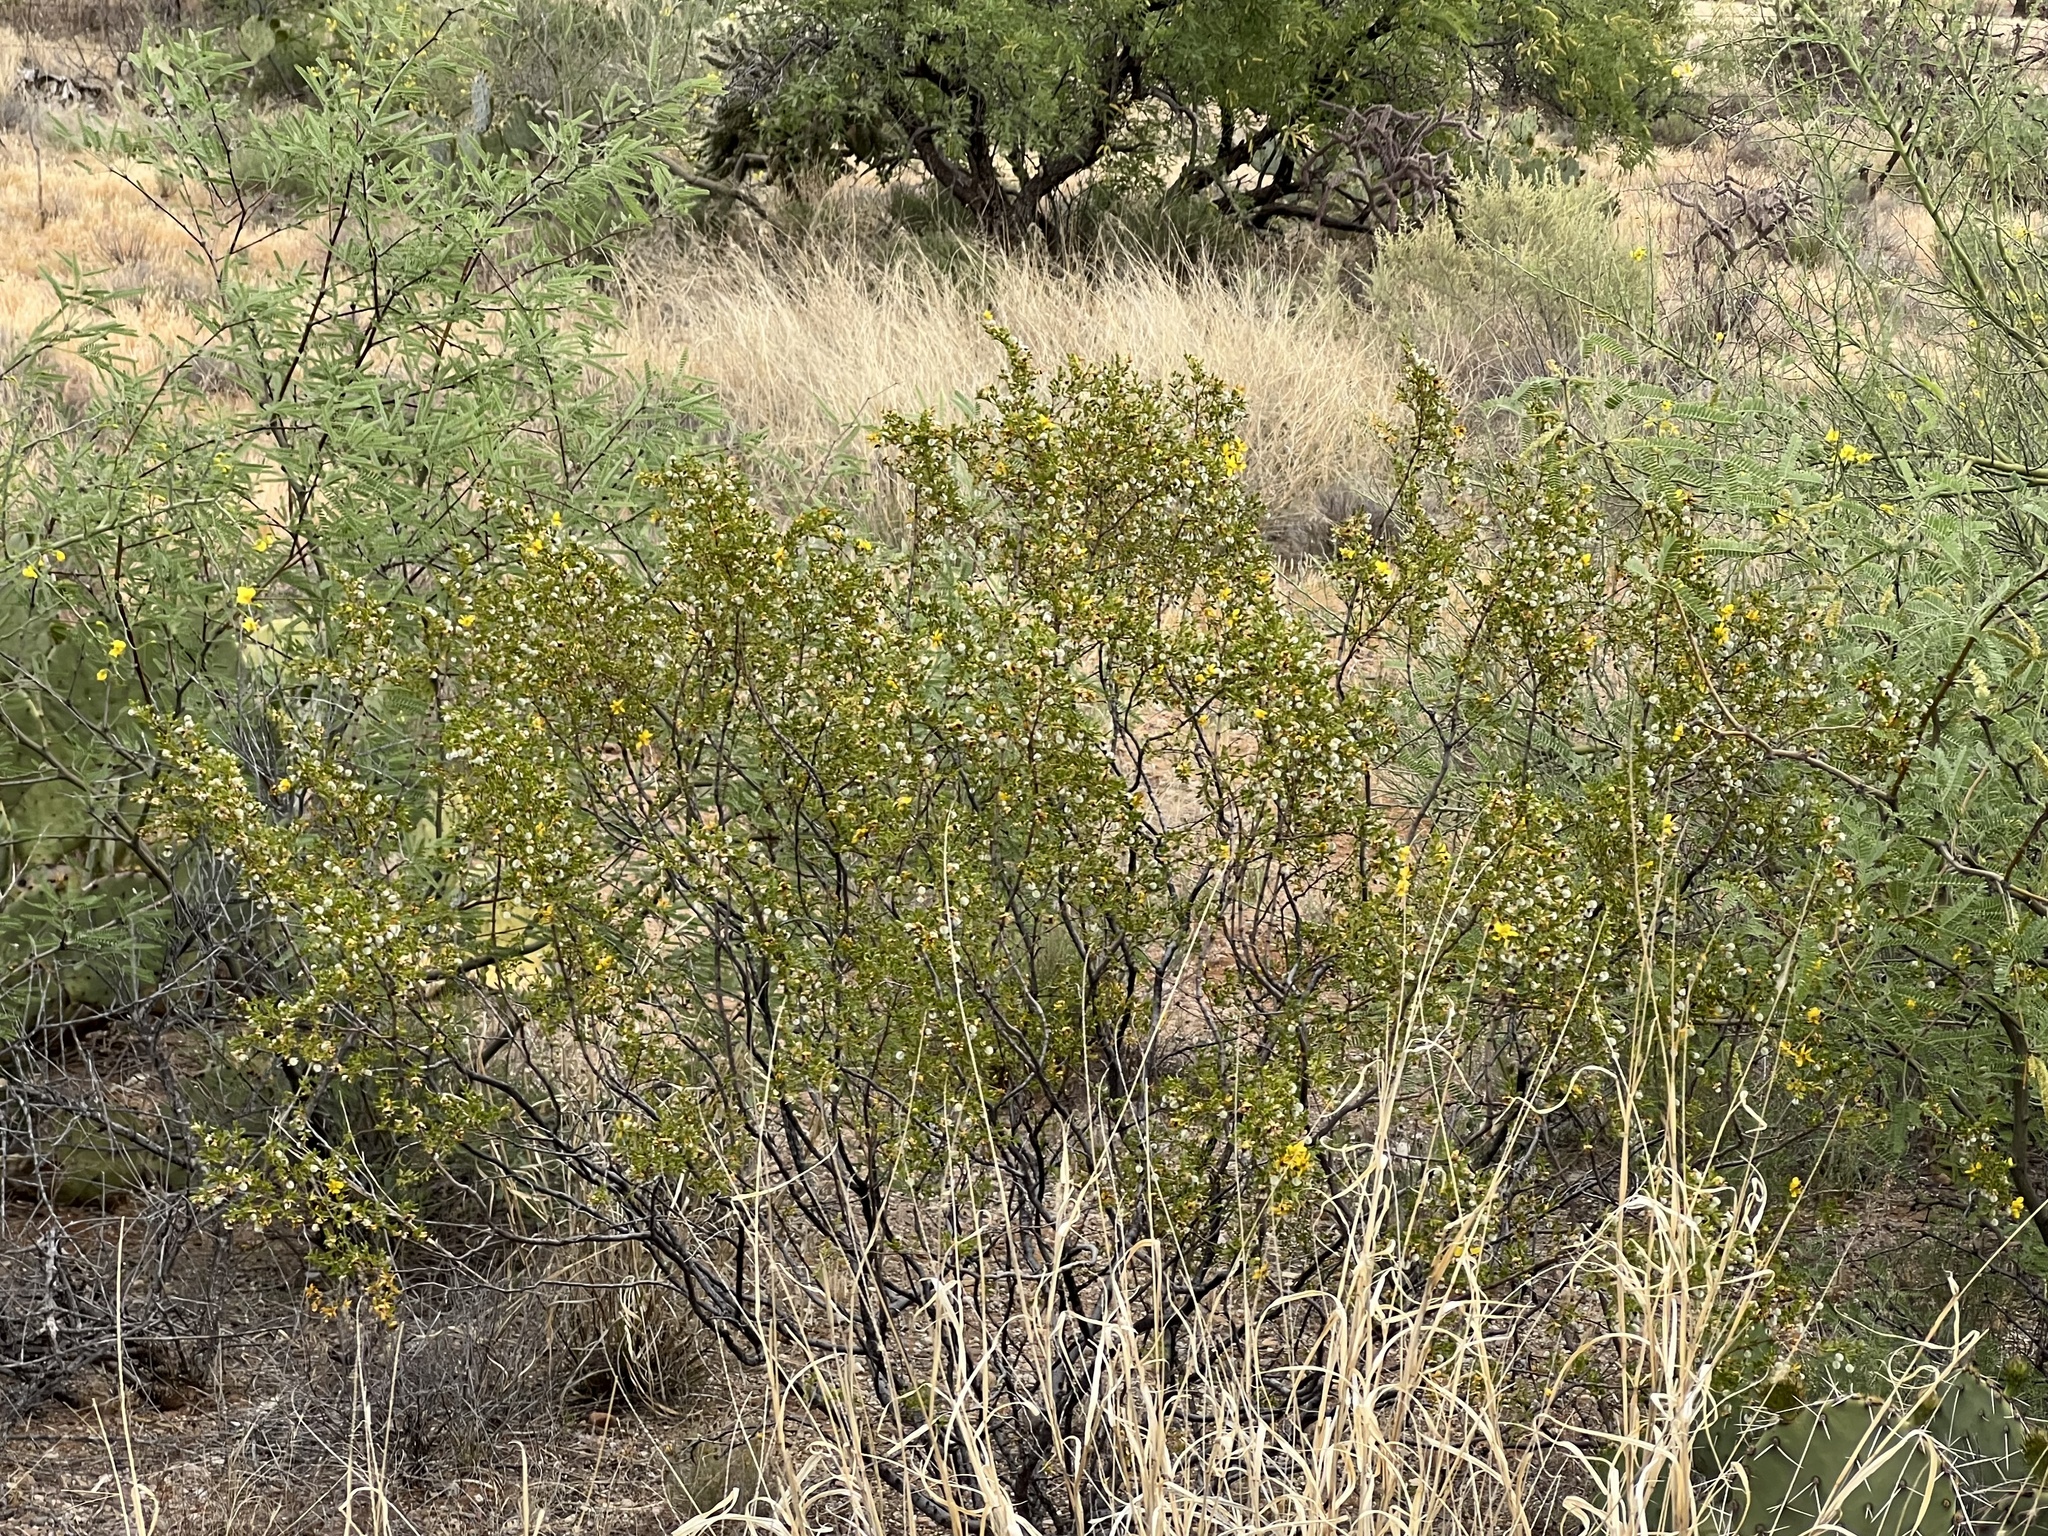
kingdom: Plantae
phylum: Tracheophyta
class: Magnoliopsida
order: Zygophyllales
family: Zygophyllaceae
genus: Larrea
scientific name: Larrea tridentata
